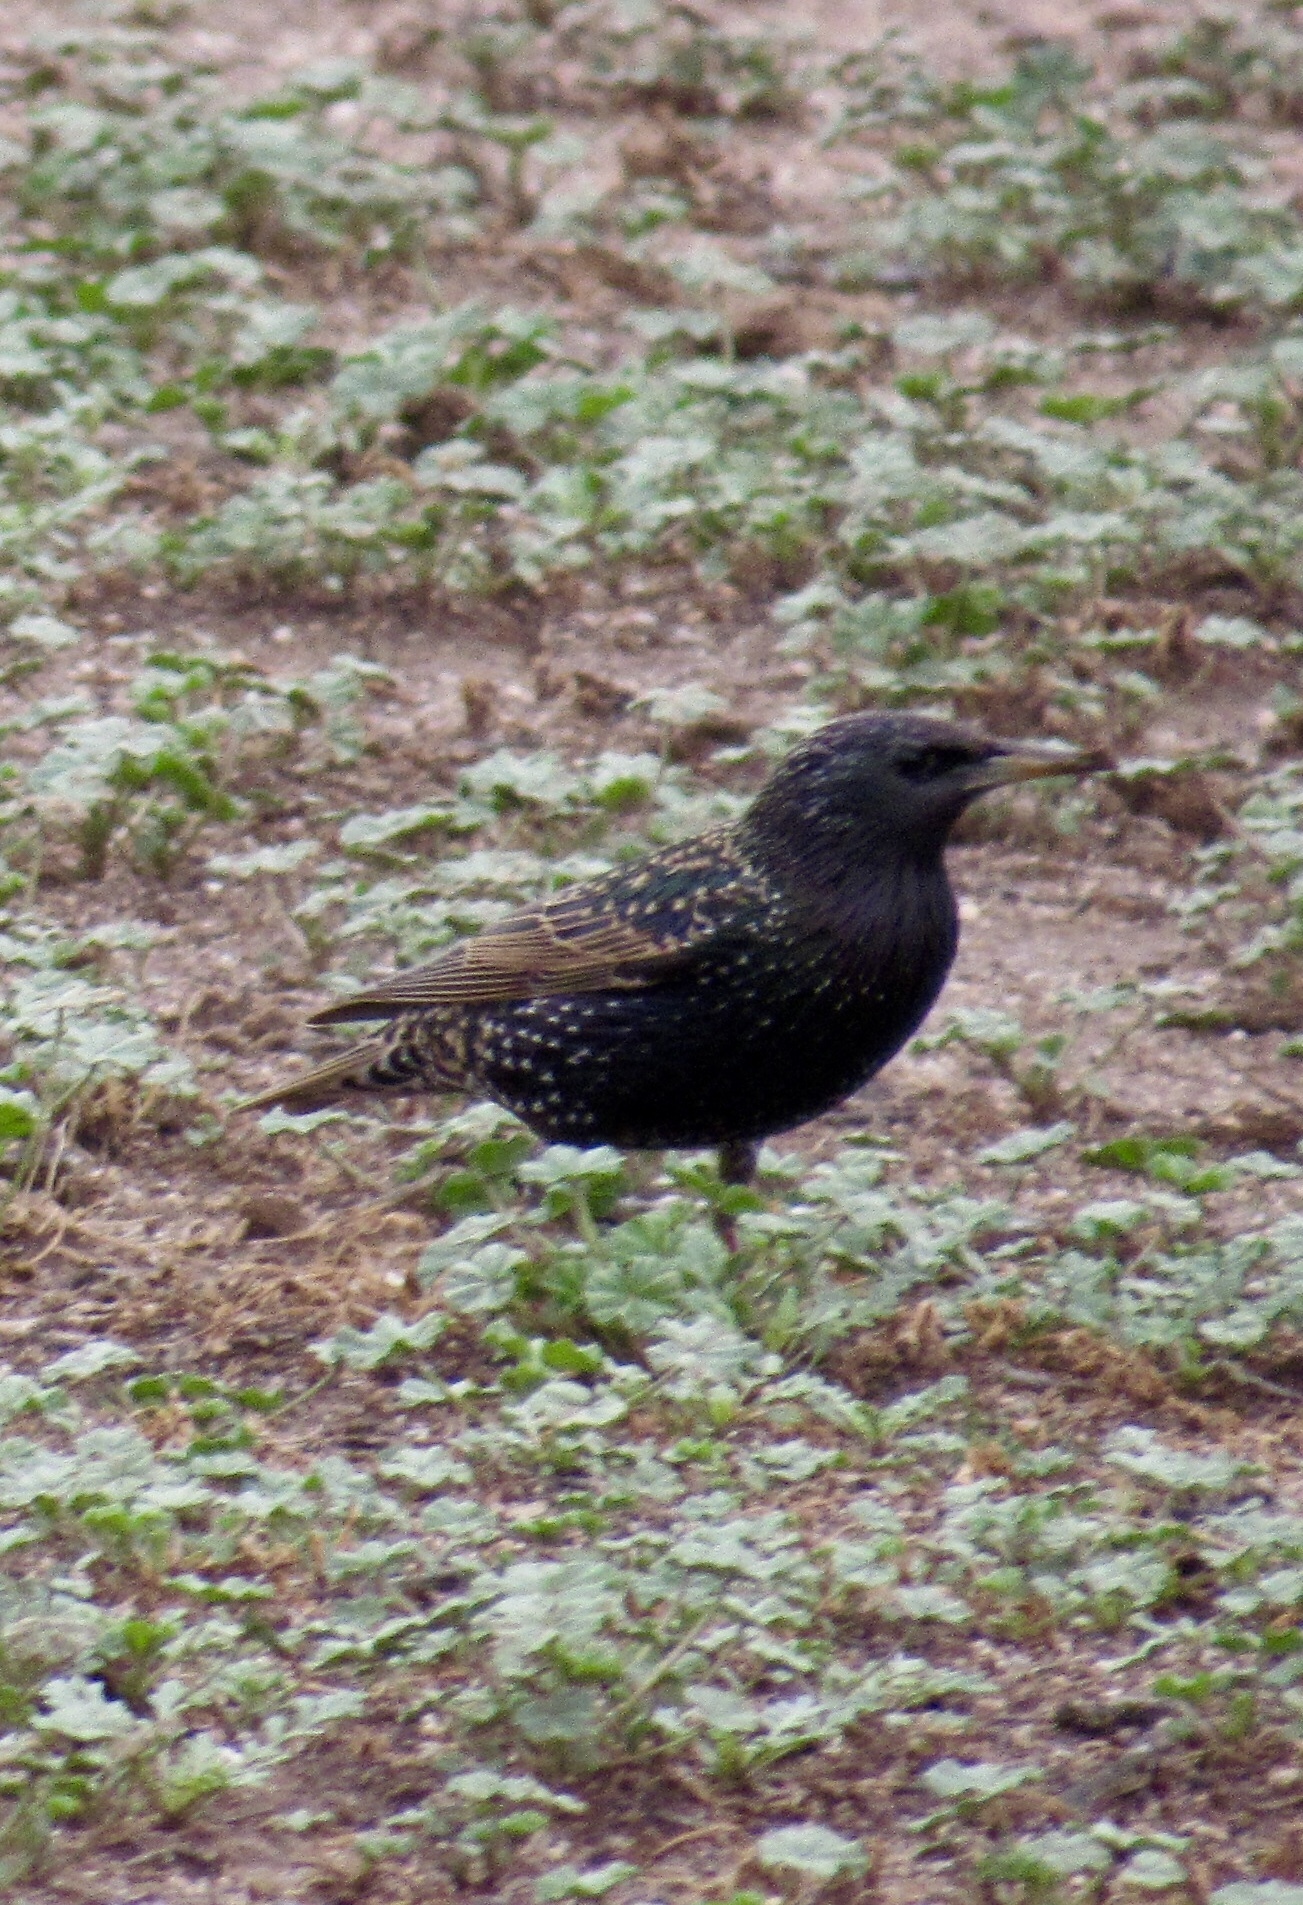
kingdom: Animalia
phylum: Chordata
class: Aves
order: Passeriformes
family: Sturnidae
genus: Sturnus
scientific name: Sturnus vulgaris
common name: Common starling
